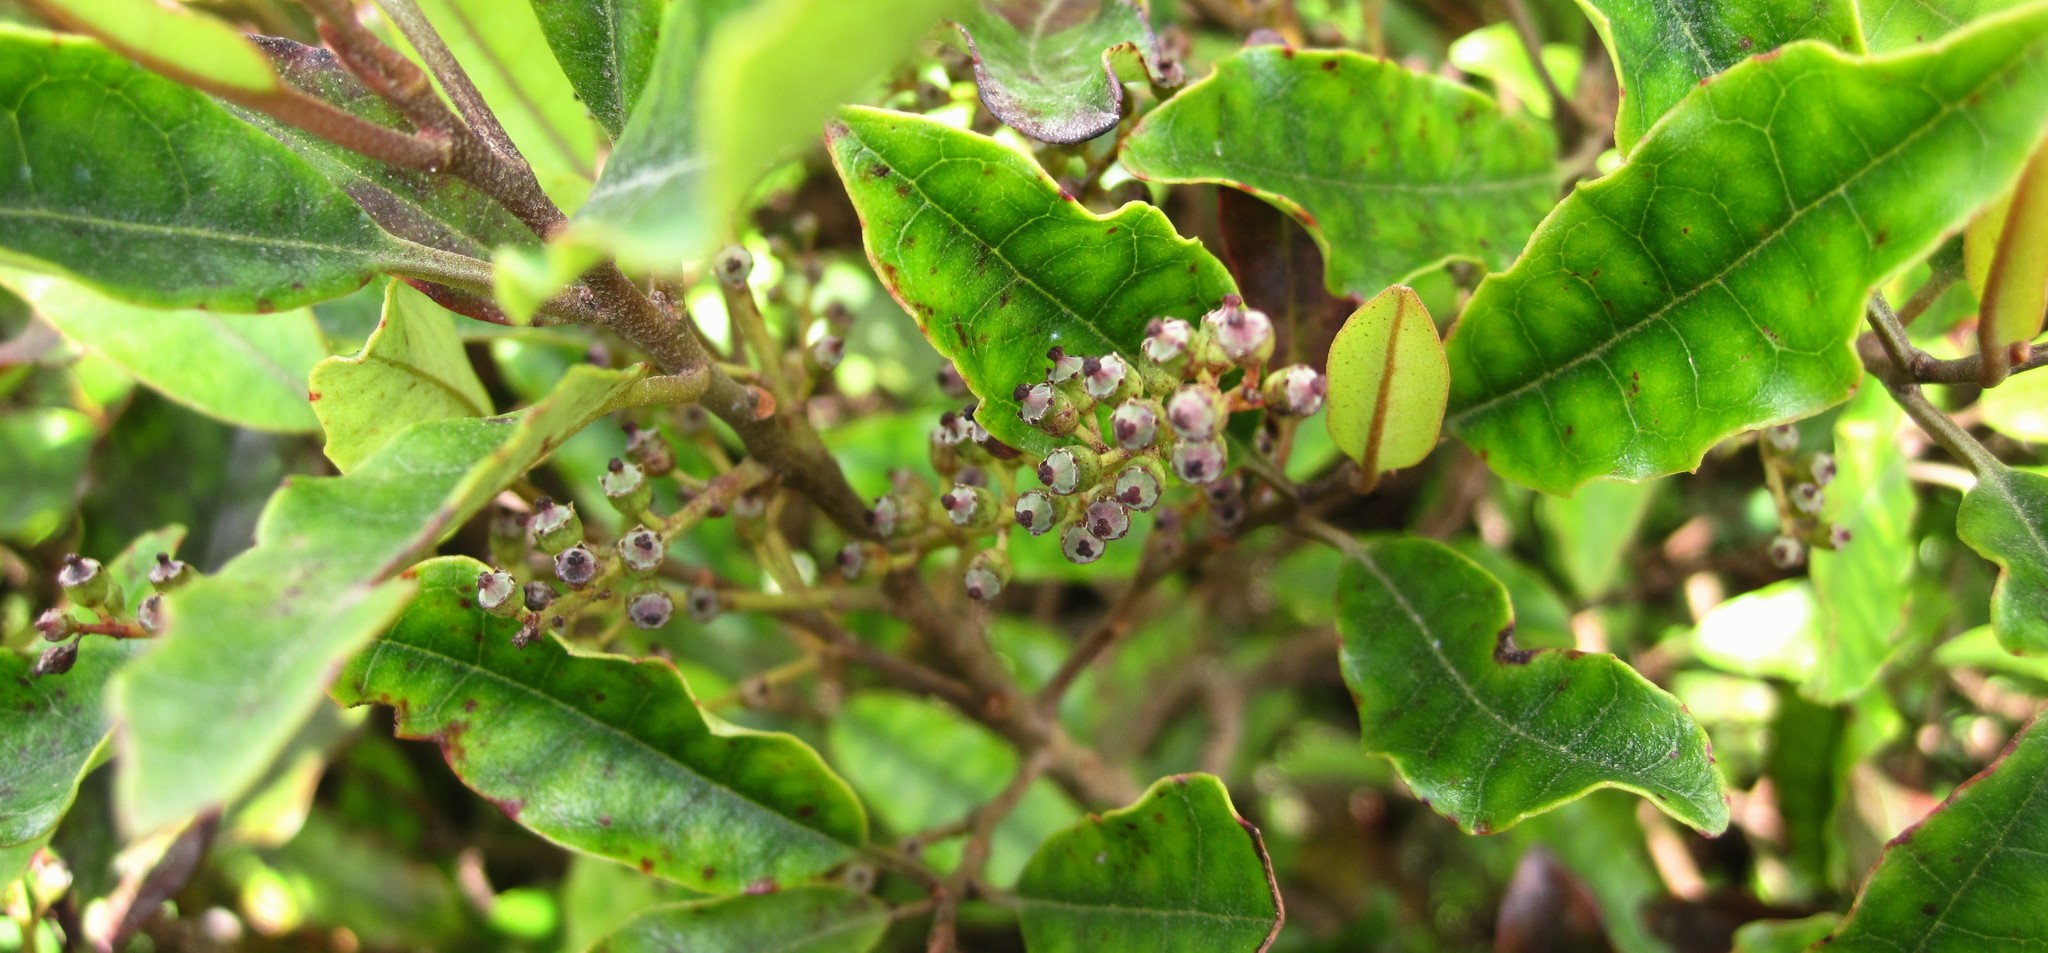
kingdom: Plantae
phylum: Tracheophyta
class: Magnoliopsida
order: Paracryphiales
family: Paracryphiaceae
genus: Quintinia
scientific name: Quintinia serrata
